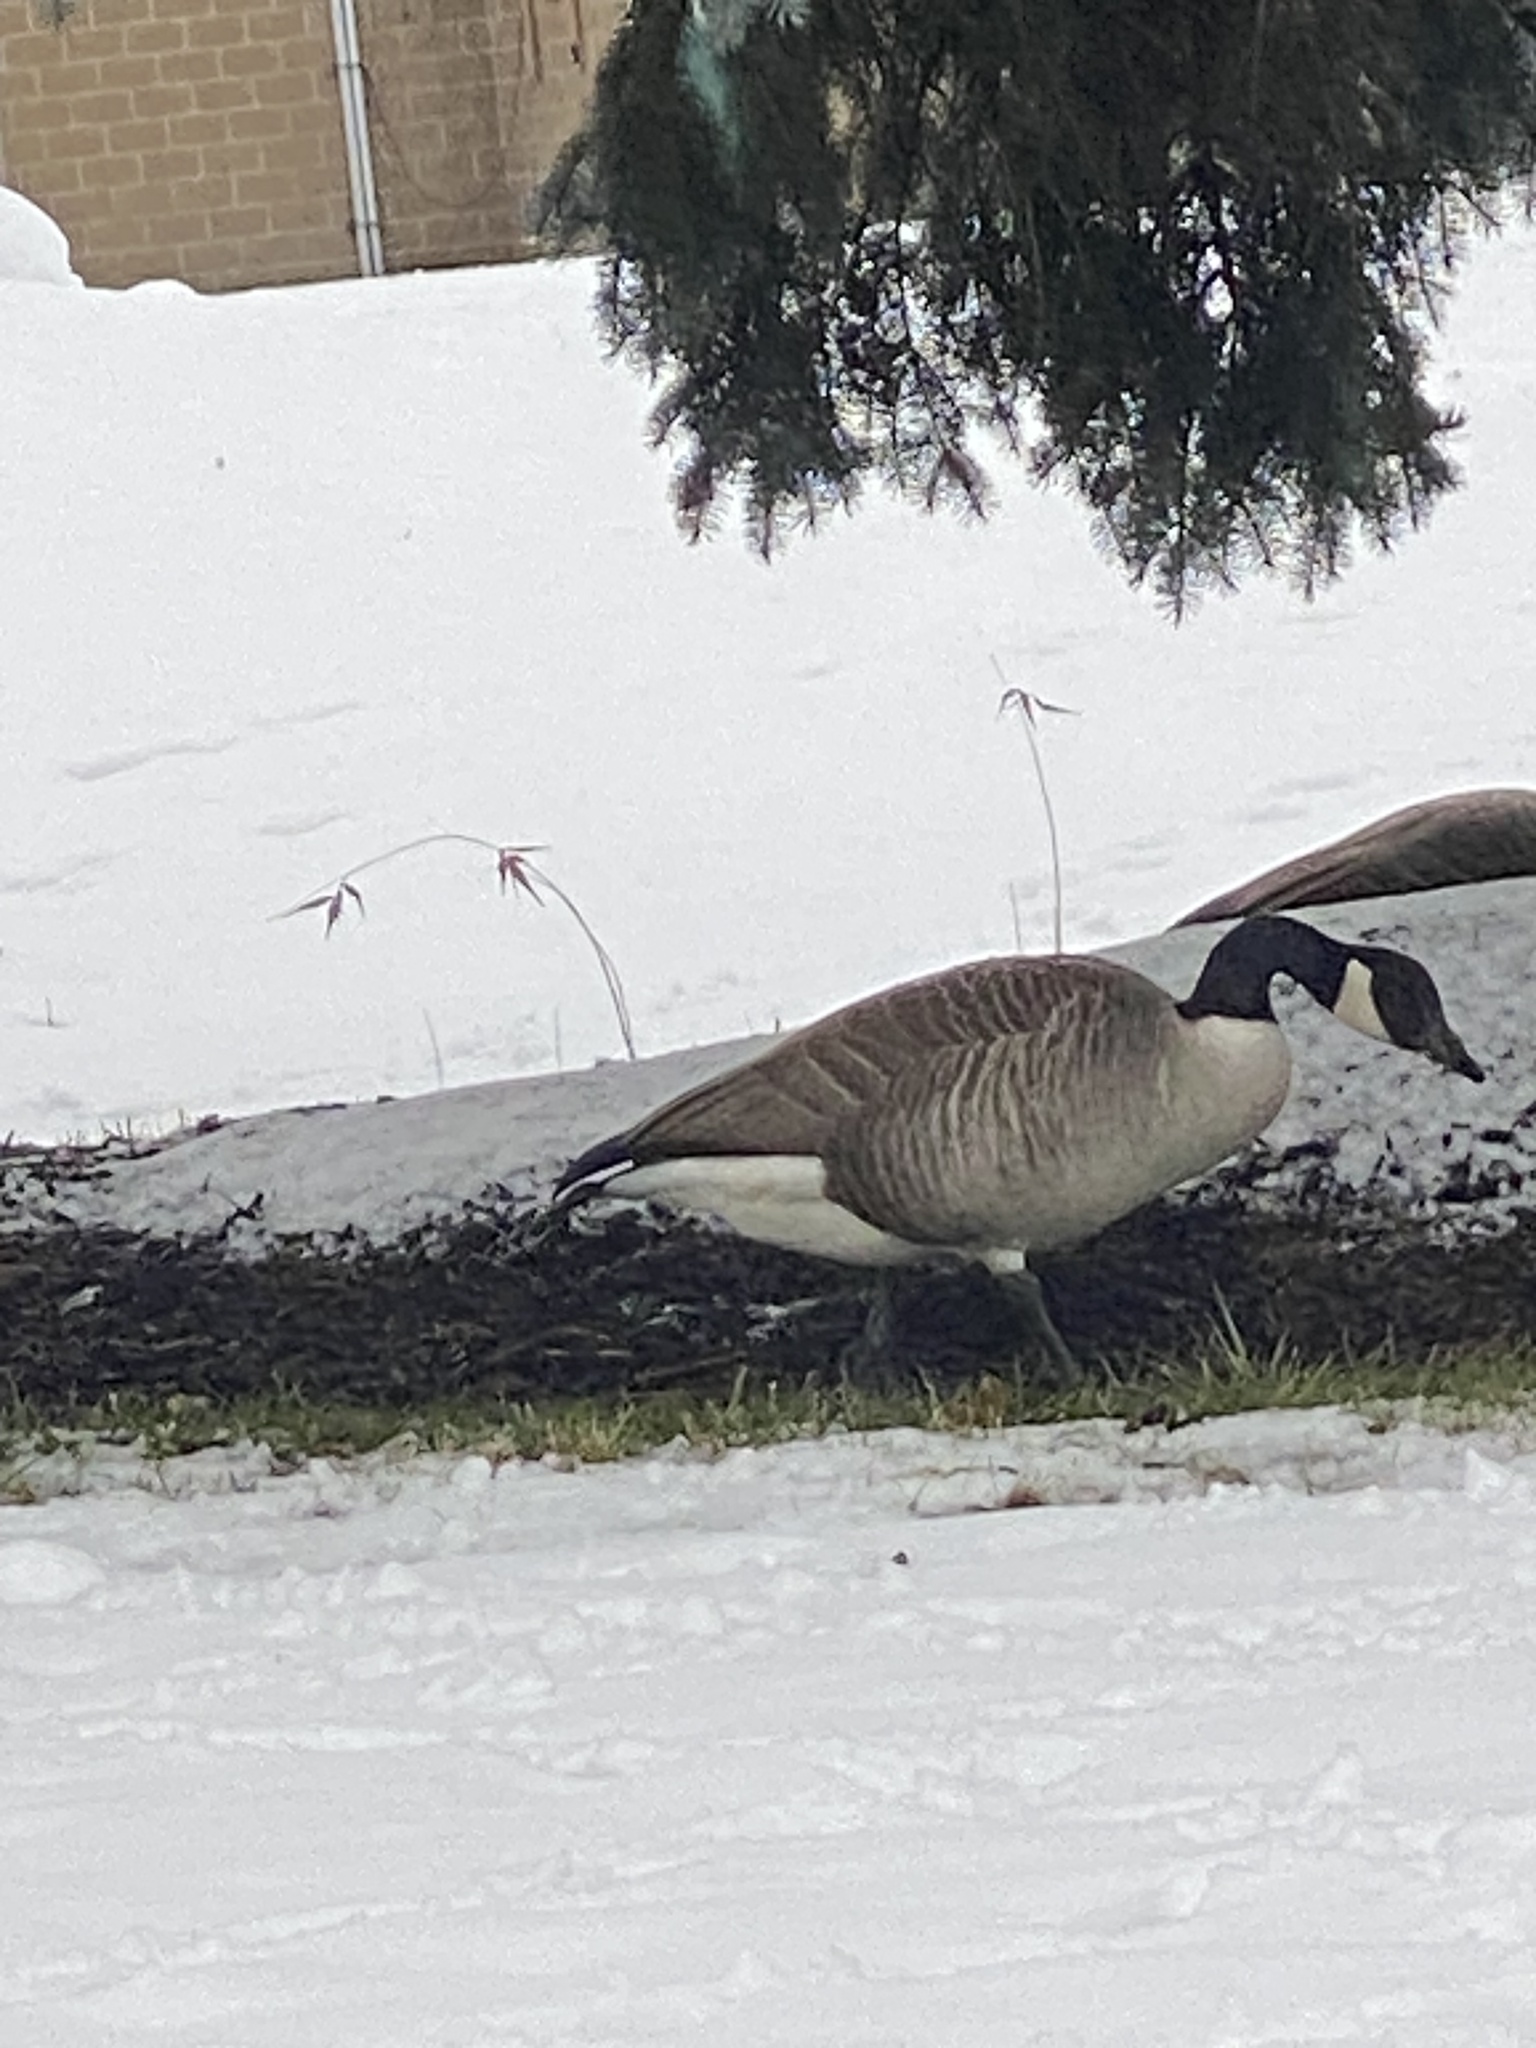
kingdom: Animalia
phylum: Chordata
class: Aves
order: Anseriformes
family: Anatidae
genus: Branta
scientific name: Branta canadensis
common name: Canada goose
